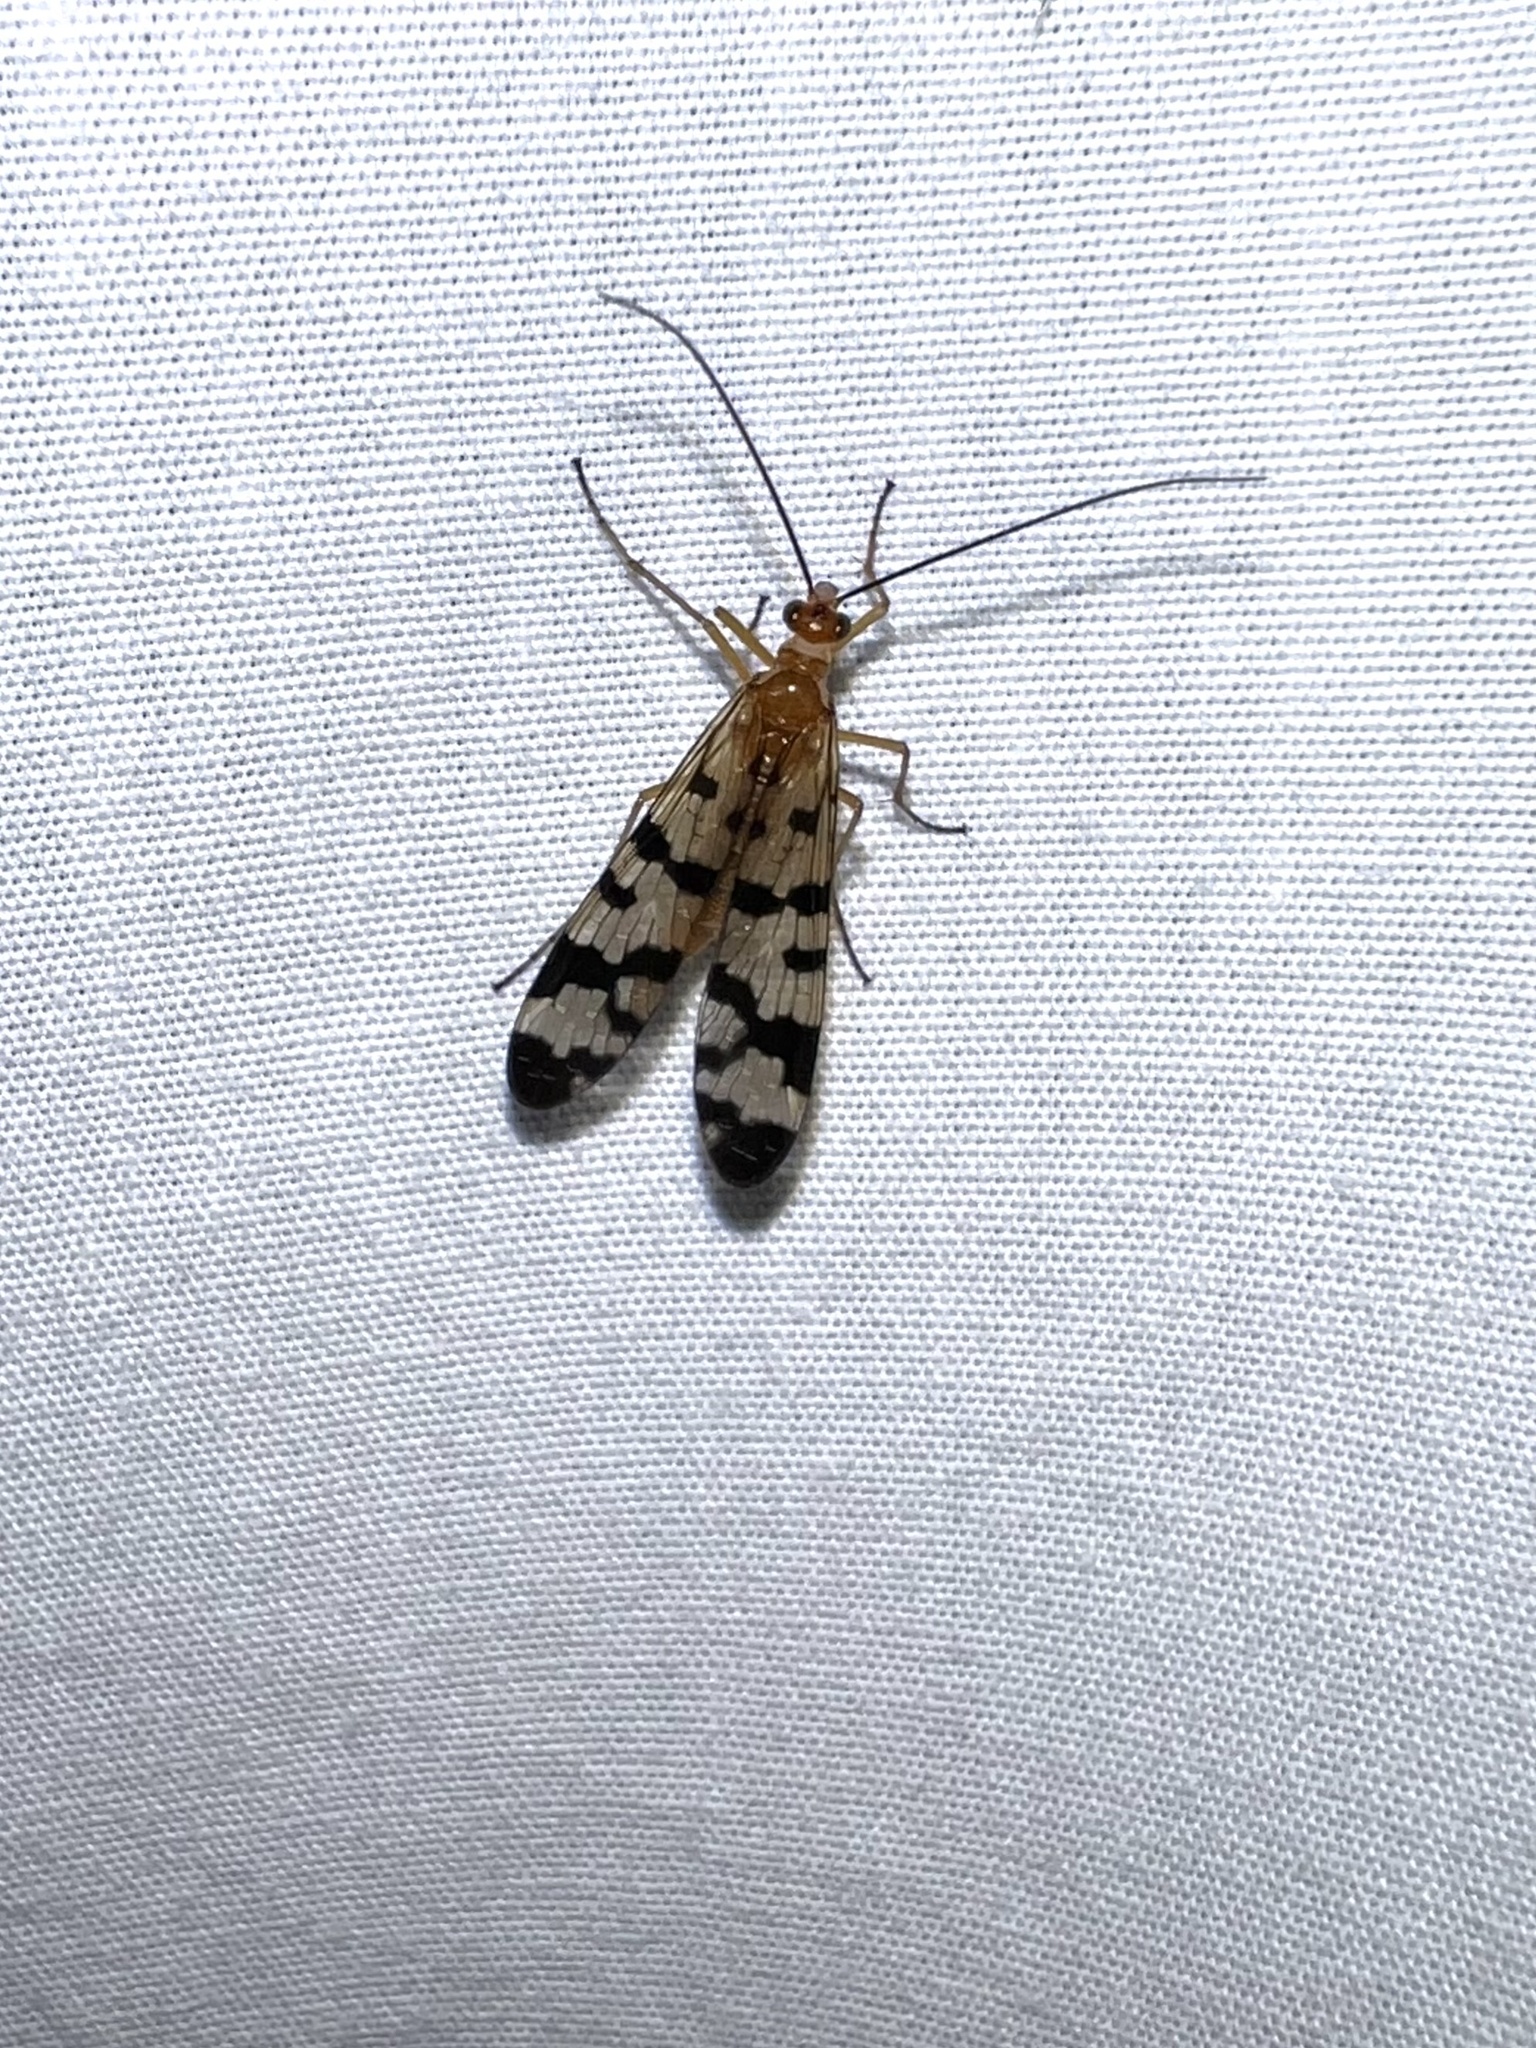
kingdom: Animalia
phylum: Arthropoda
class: Insecta
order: Mecoptera
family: Panorpidae
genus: Panorpa
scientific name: Panorpa subfurcata
